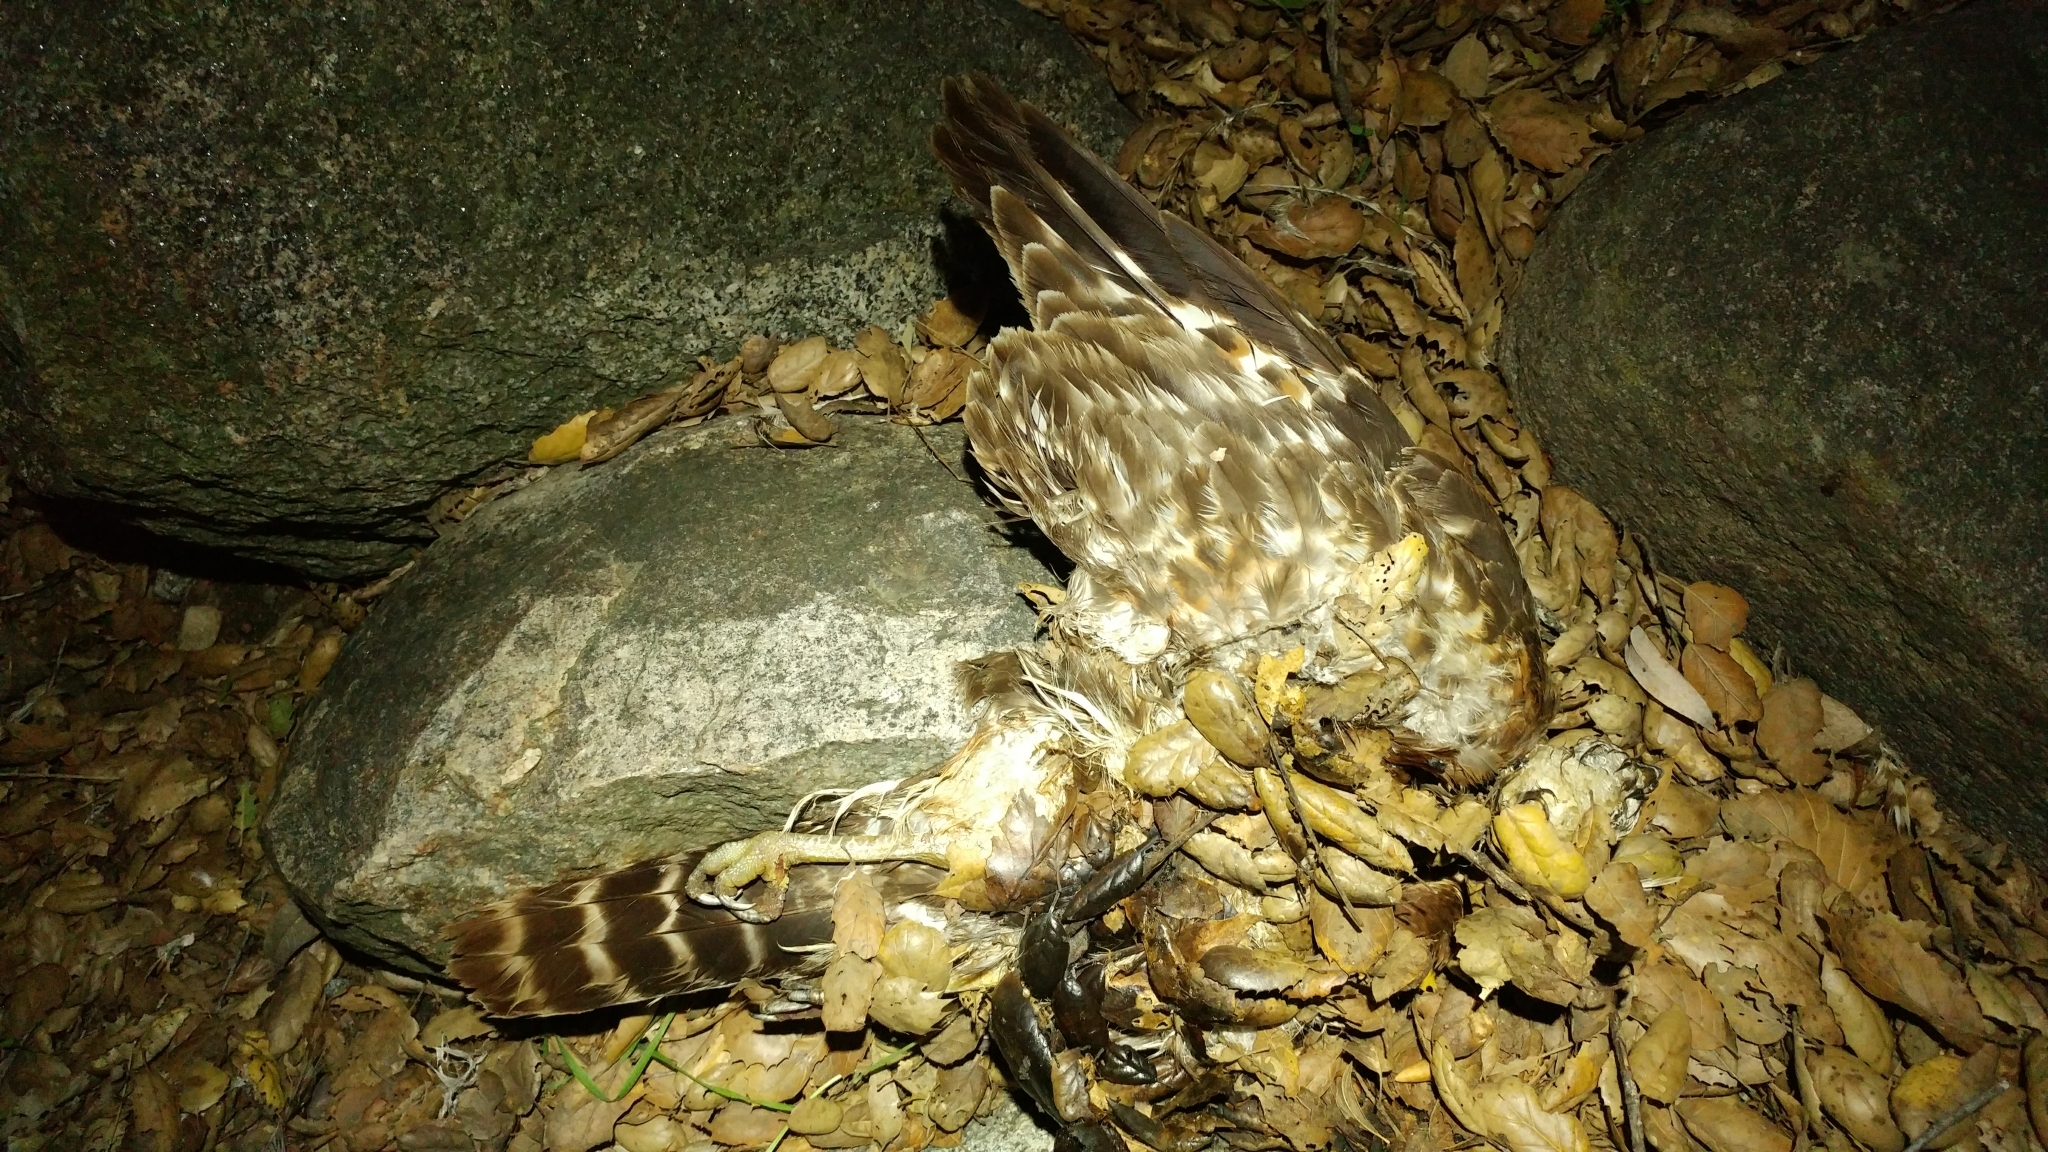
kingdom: Animalia
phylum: Chordata
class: Aves
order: Accipitriformes
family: Accipitridae
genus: Buteo
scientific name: Buteo lineatus
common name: Red-shouldered hawk
